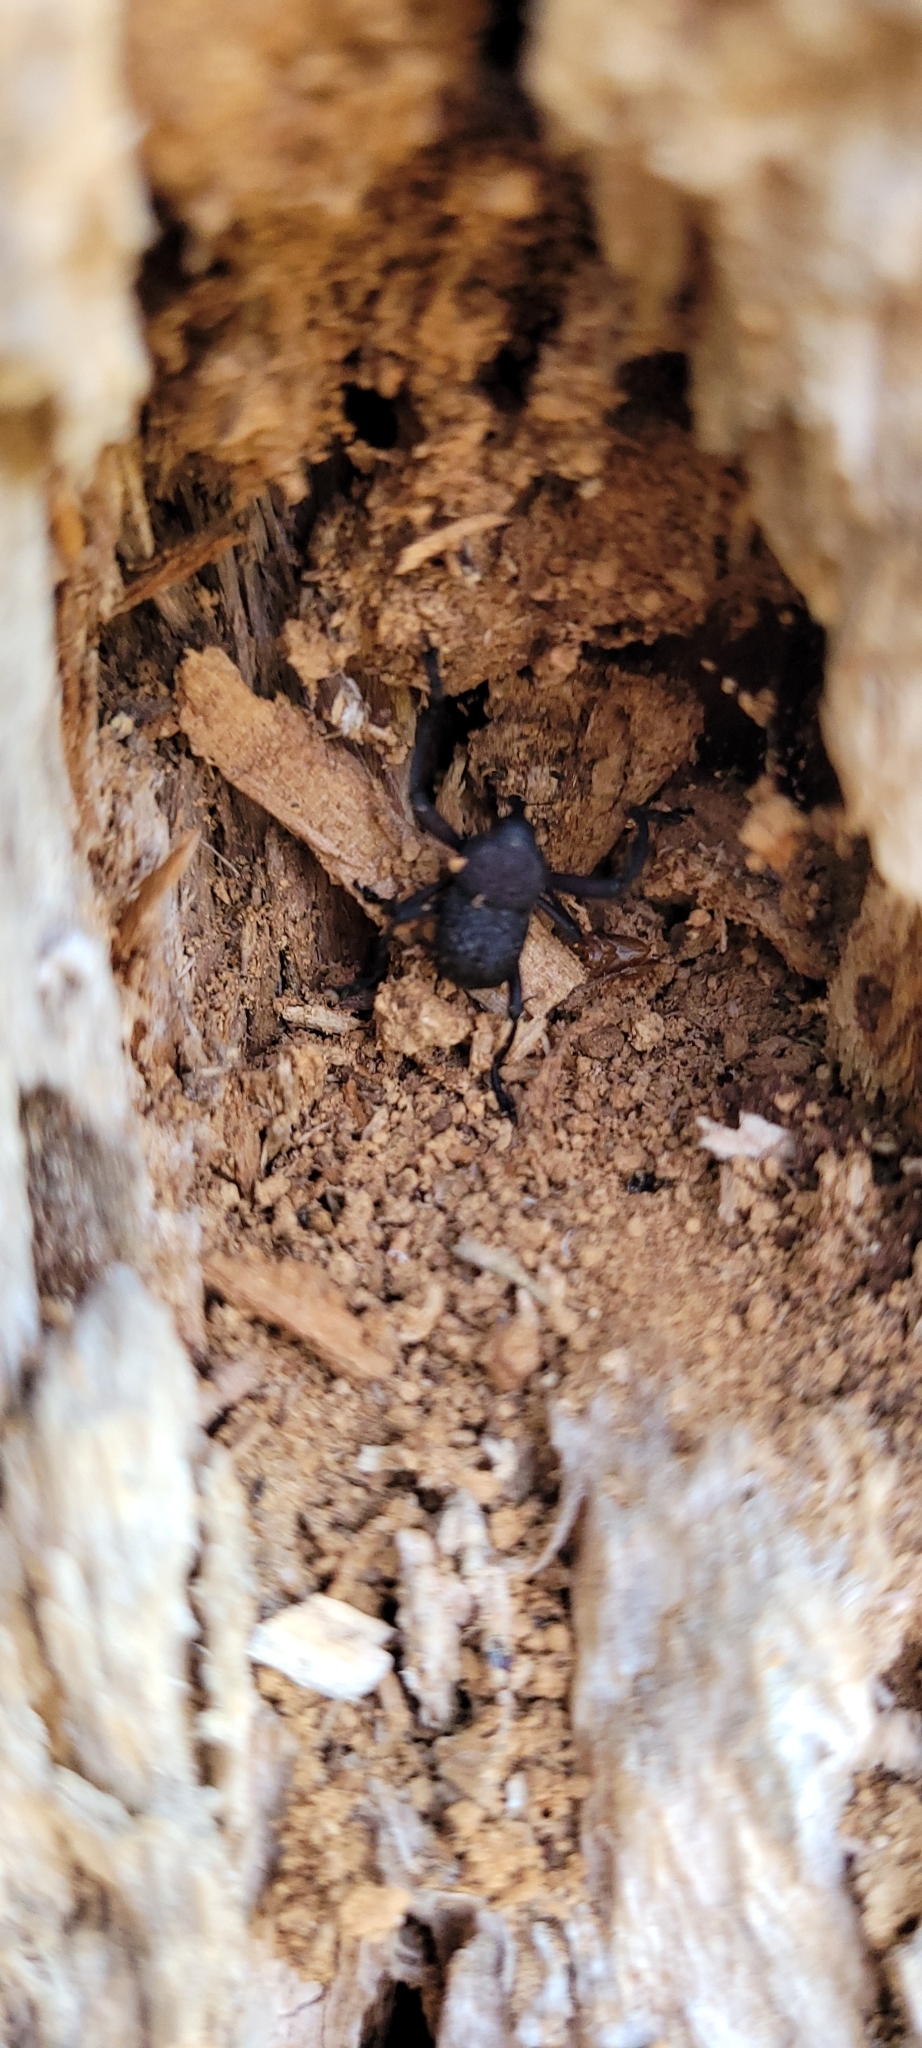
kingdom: Animalia
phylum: Arthropoda
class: Insecta
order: Coleoptera
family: Curculionidae
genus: Rhyephenes
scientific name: Rhyephenes maillei
